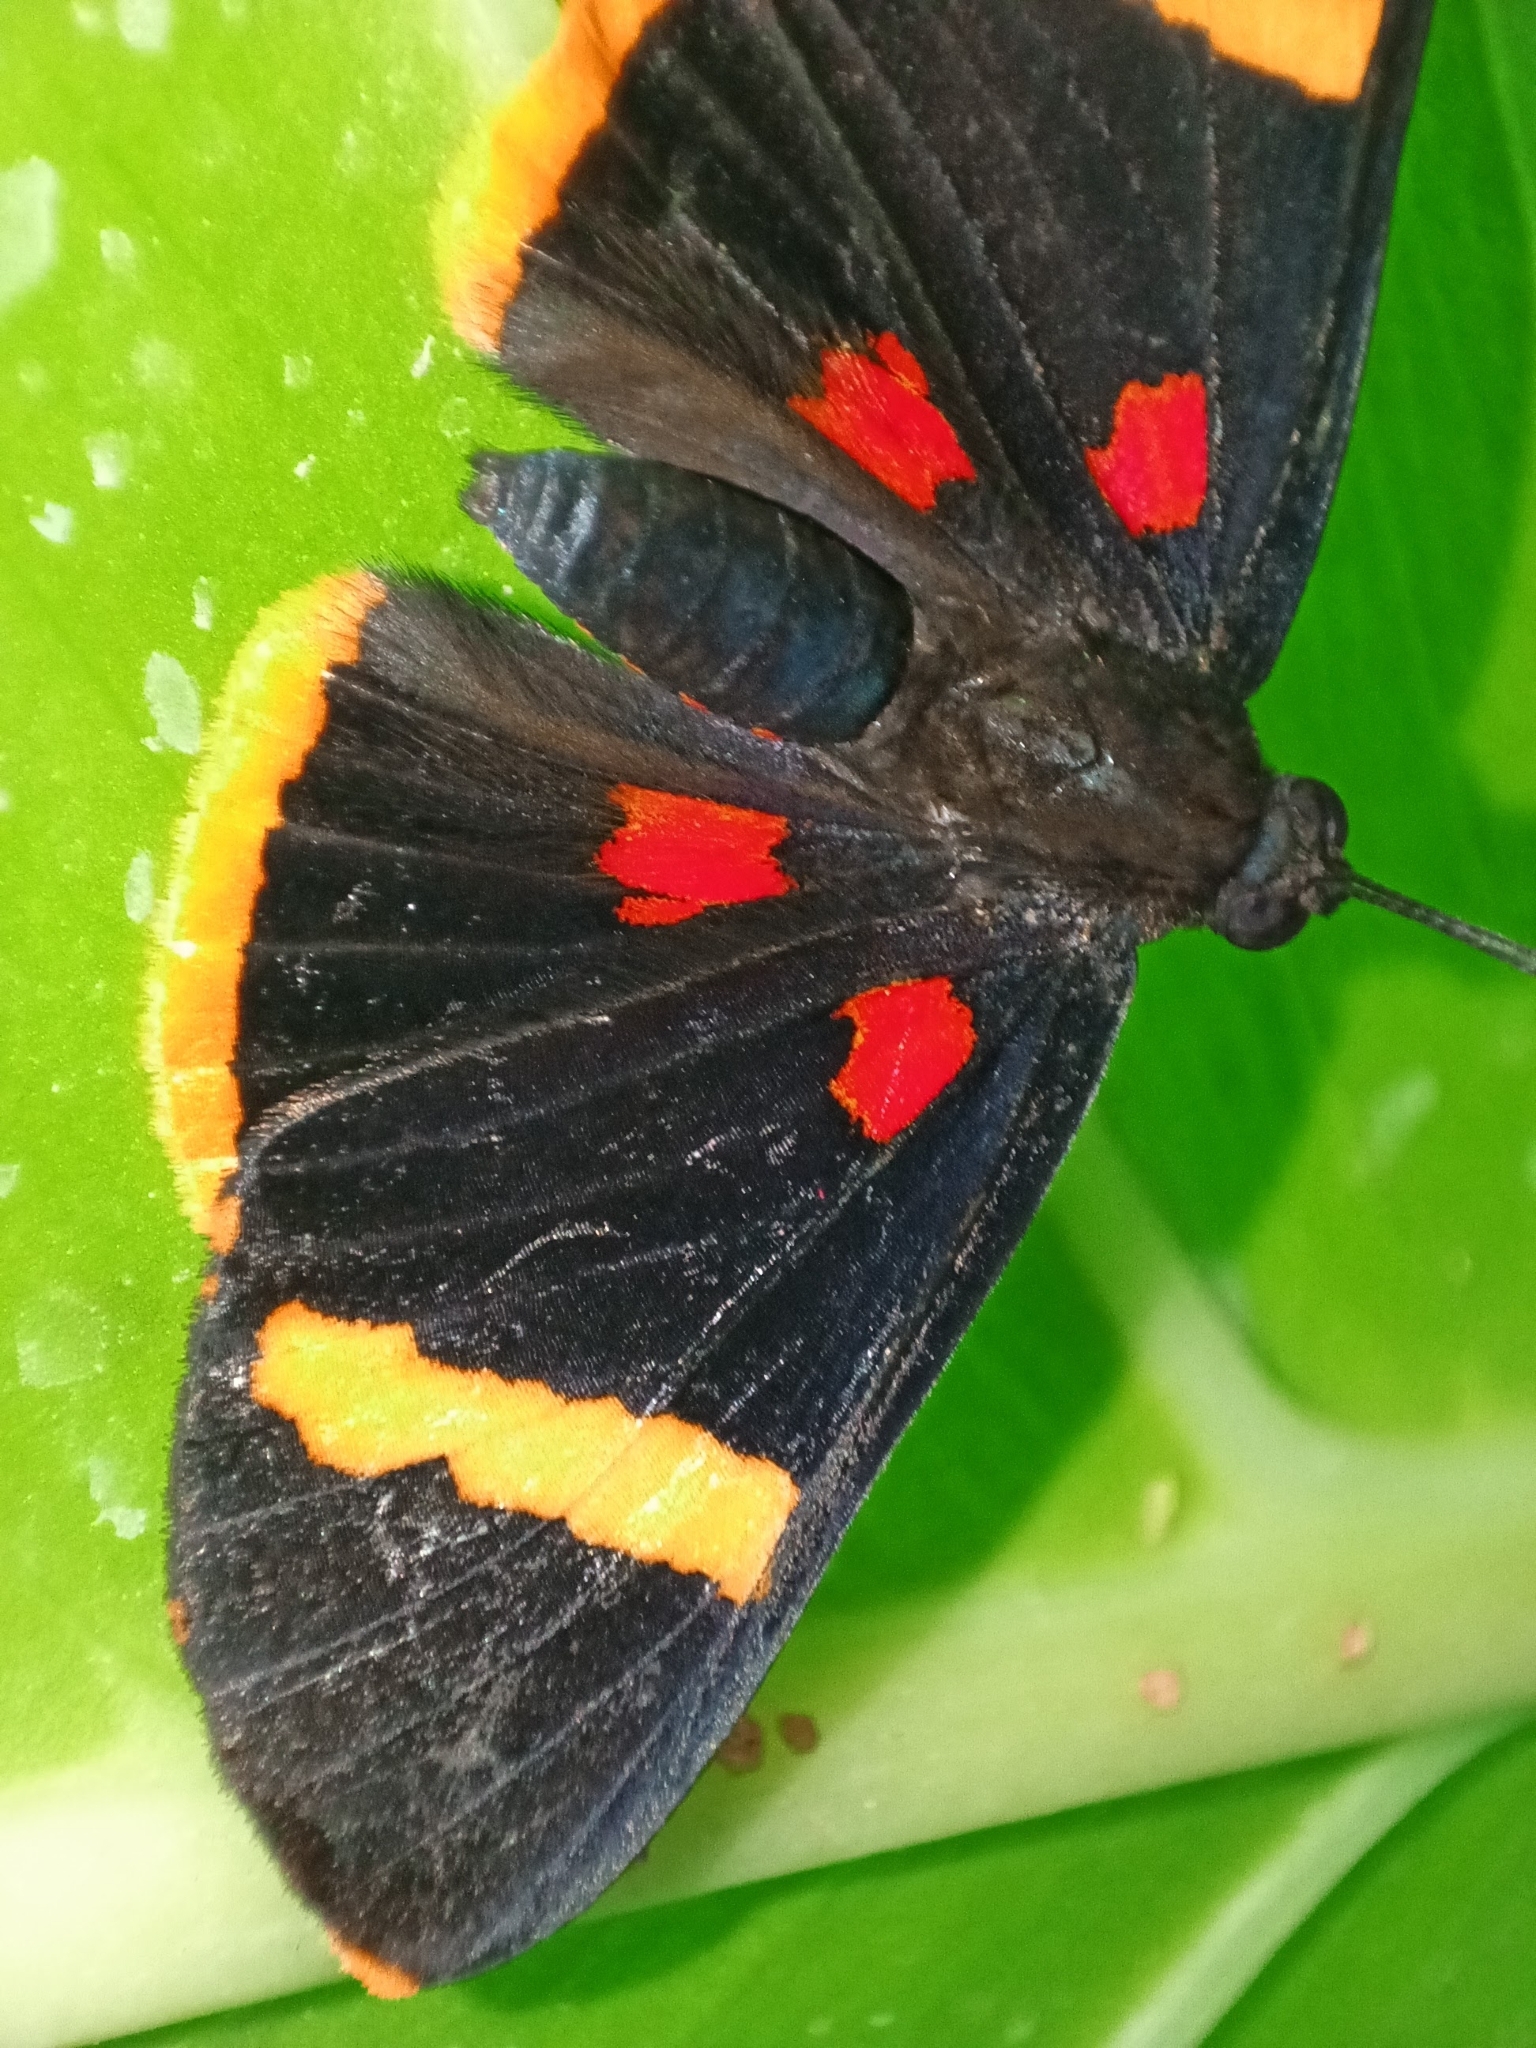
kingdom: Animalia
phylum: Arthropoda
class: Insecta
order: Lepidoptera
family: Lycaenidae
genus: Melanis
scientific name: Melanis electron
